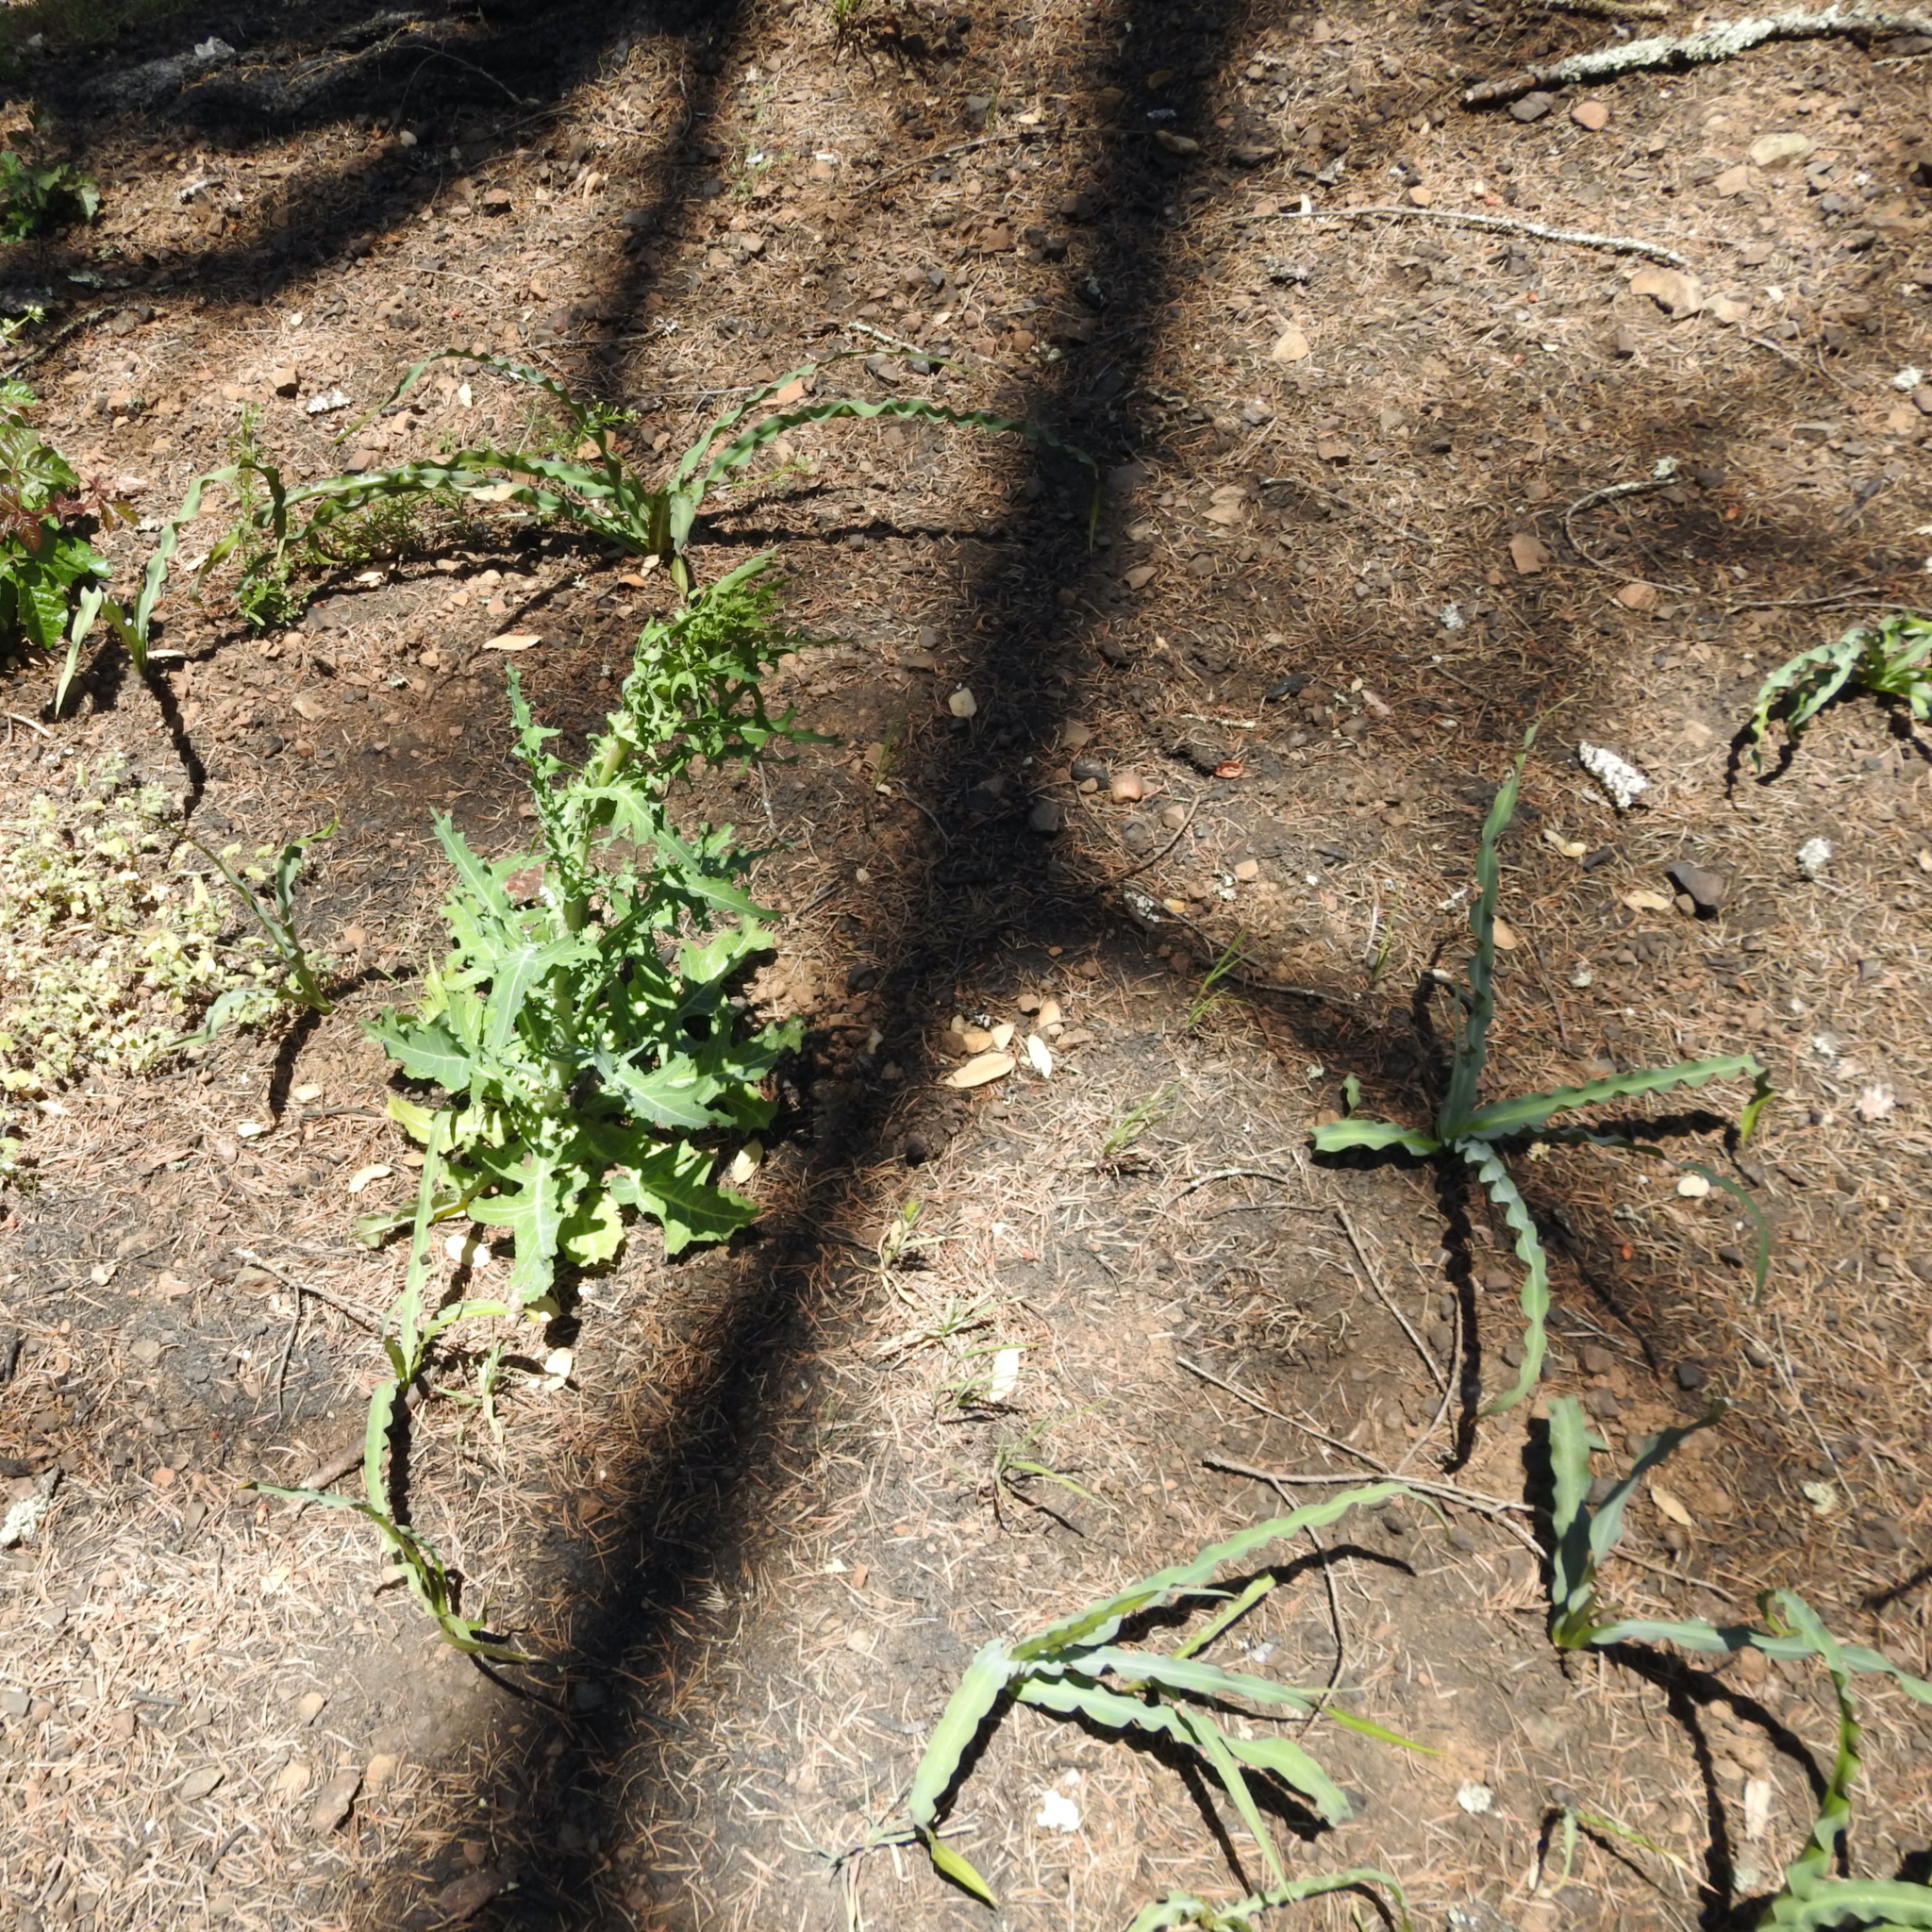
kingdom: Plantae
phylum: Tracheophyta
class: Liliopsida
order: Asparagales
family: Asparagaceae
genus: Chlorogalum
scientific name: Chlorogalum pomeridianum
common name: Amole
